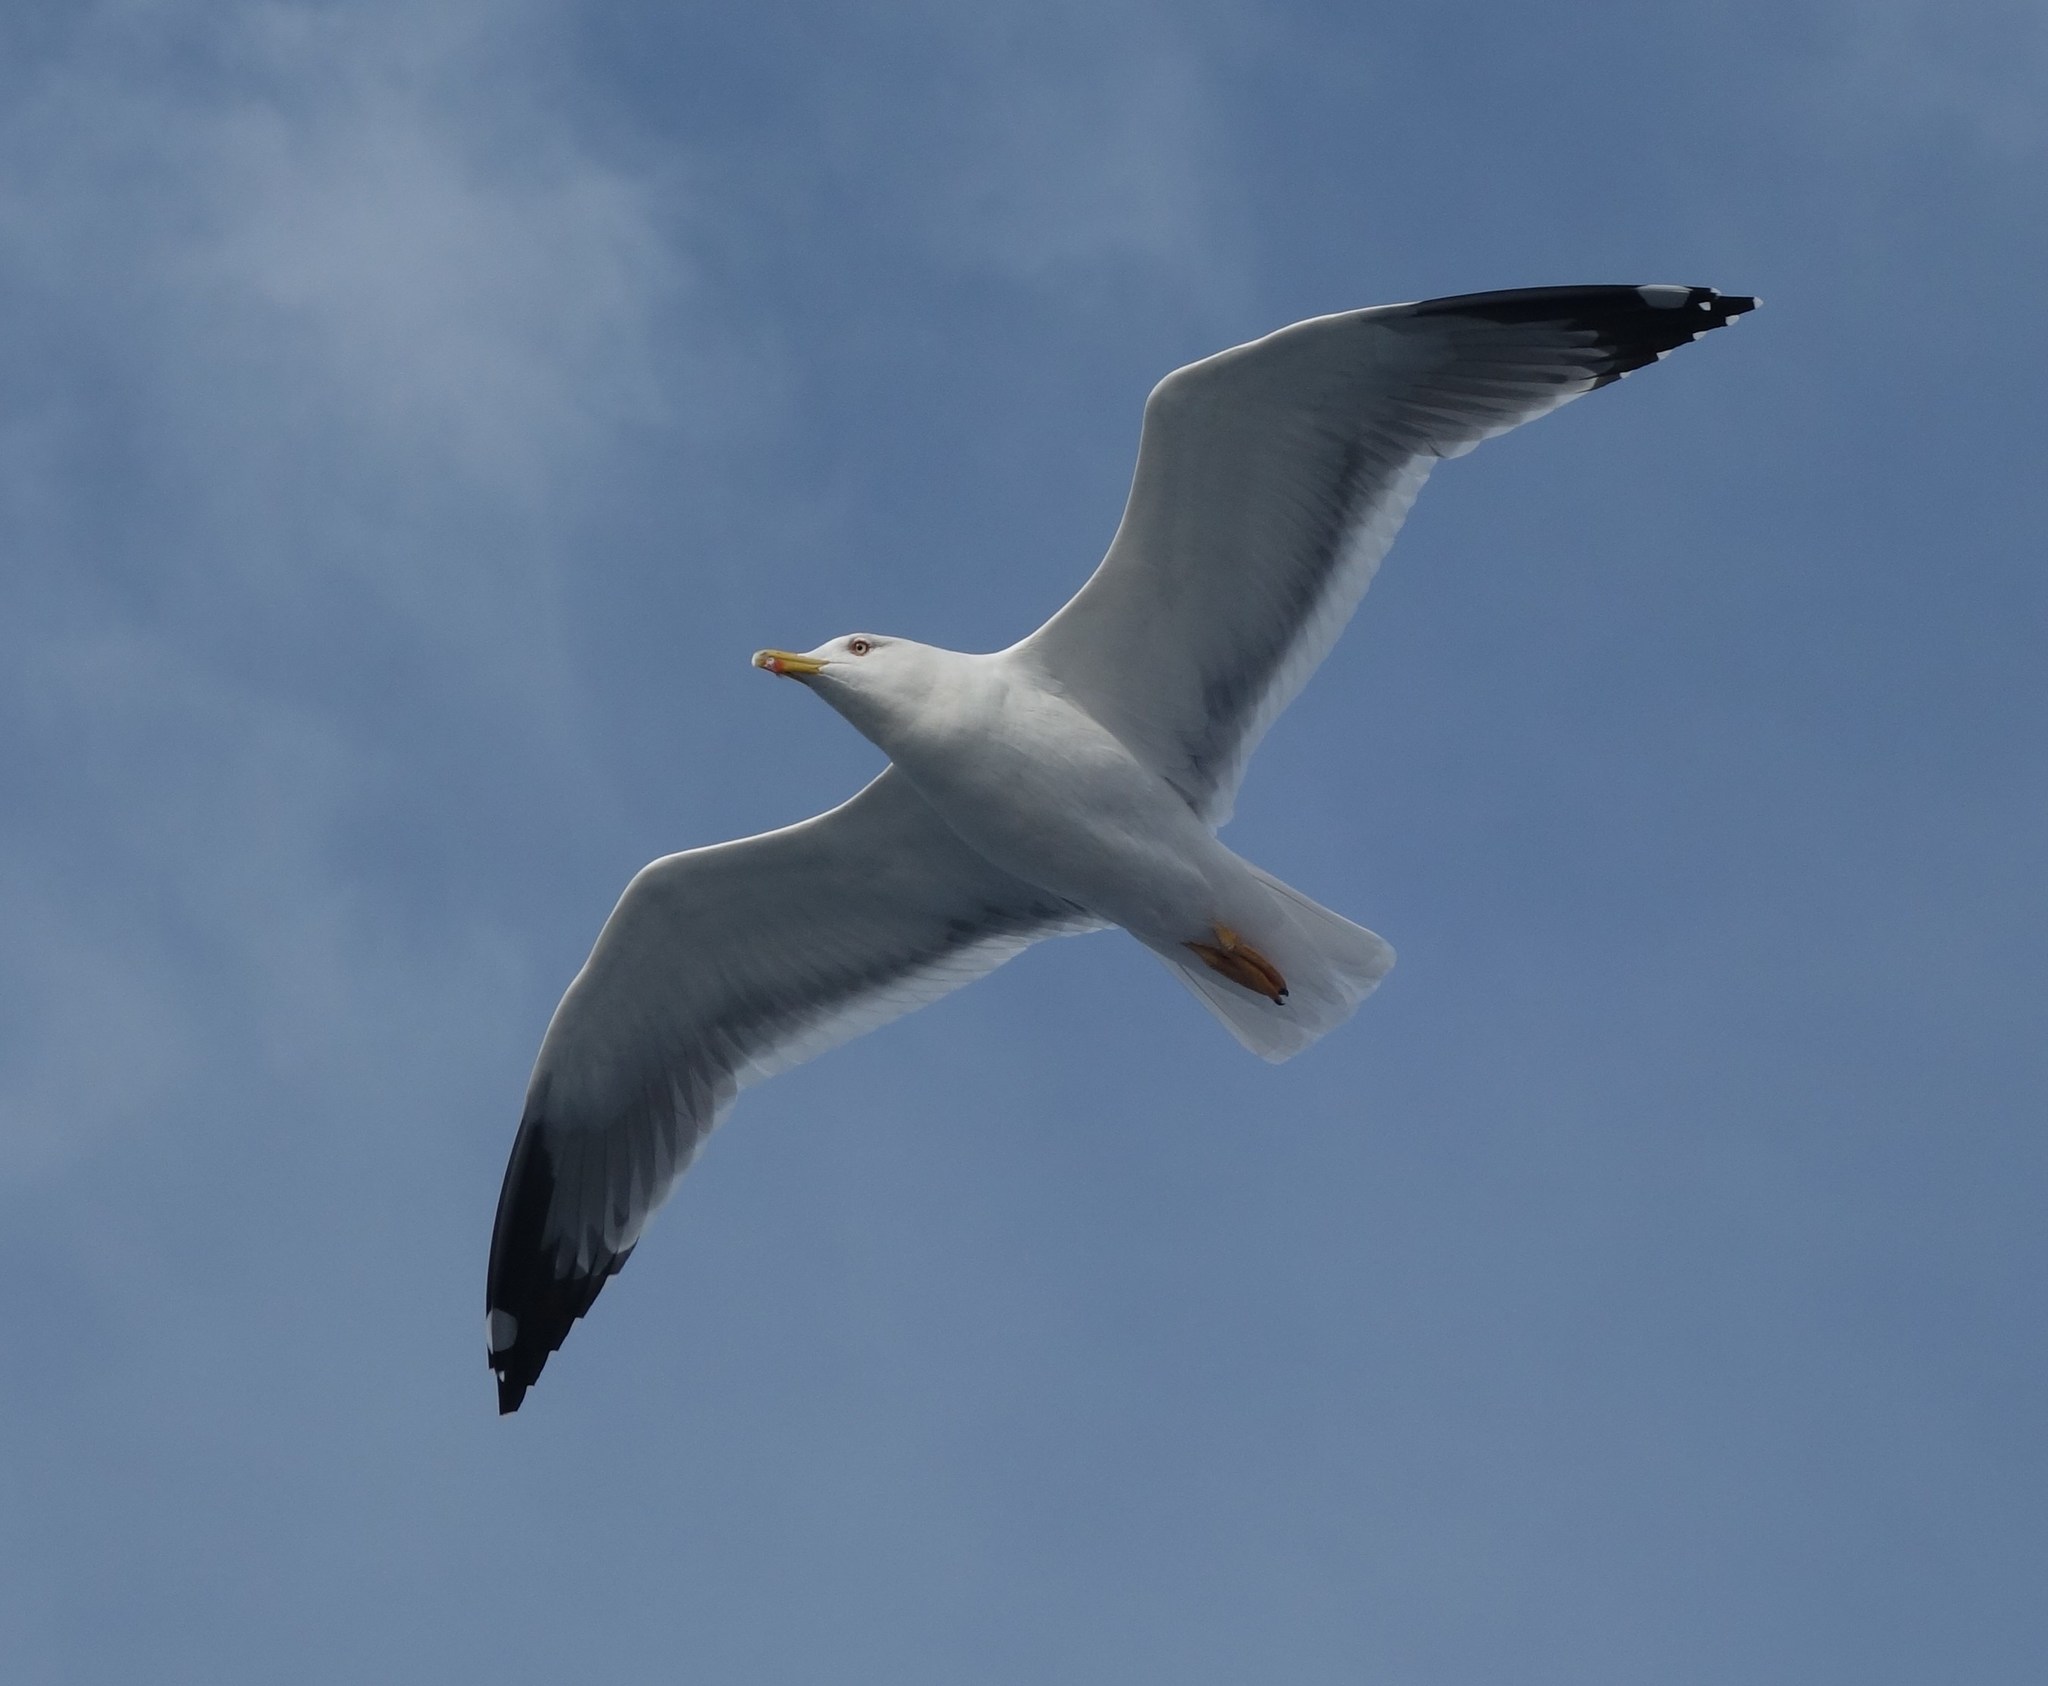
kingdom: Animalia
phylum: Chordata
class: Aves
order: Charadriiformes
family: Laridae
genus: Larus
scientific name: Larus michahellis
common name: Yellow-legged gull
